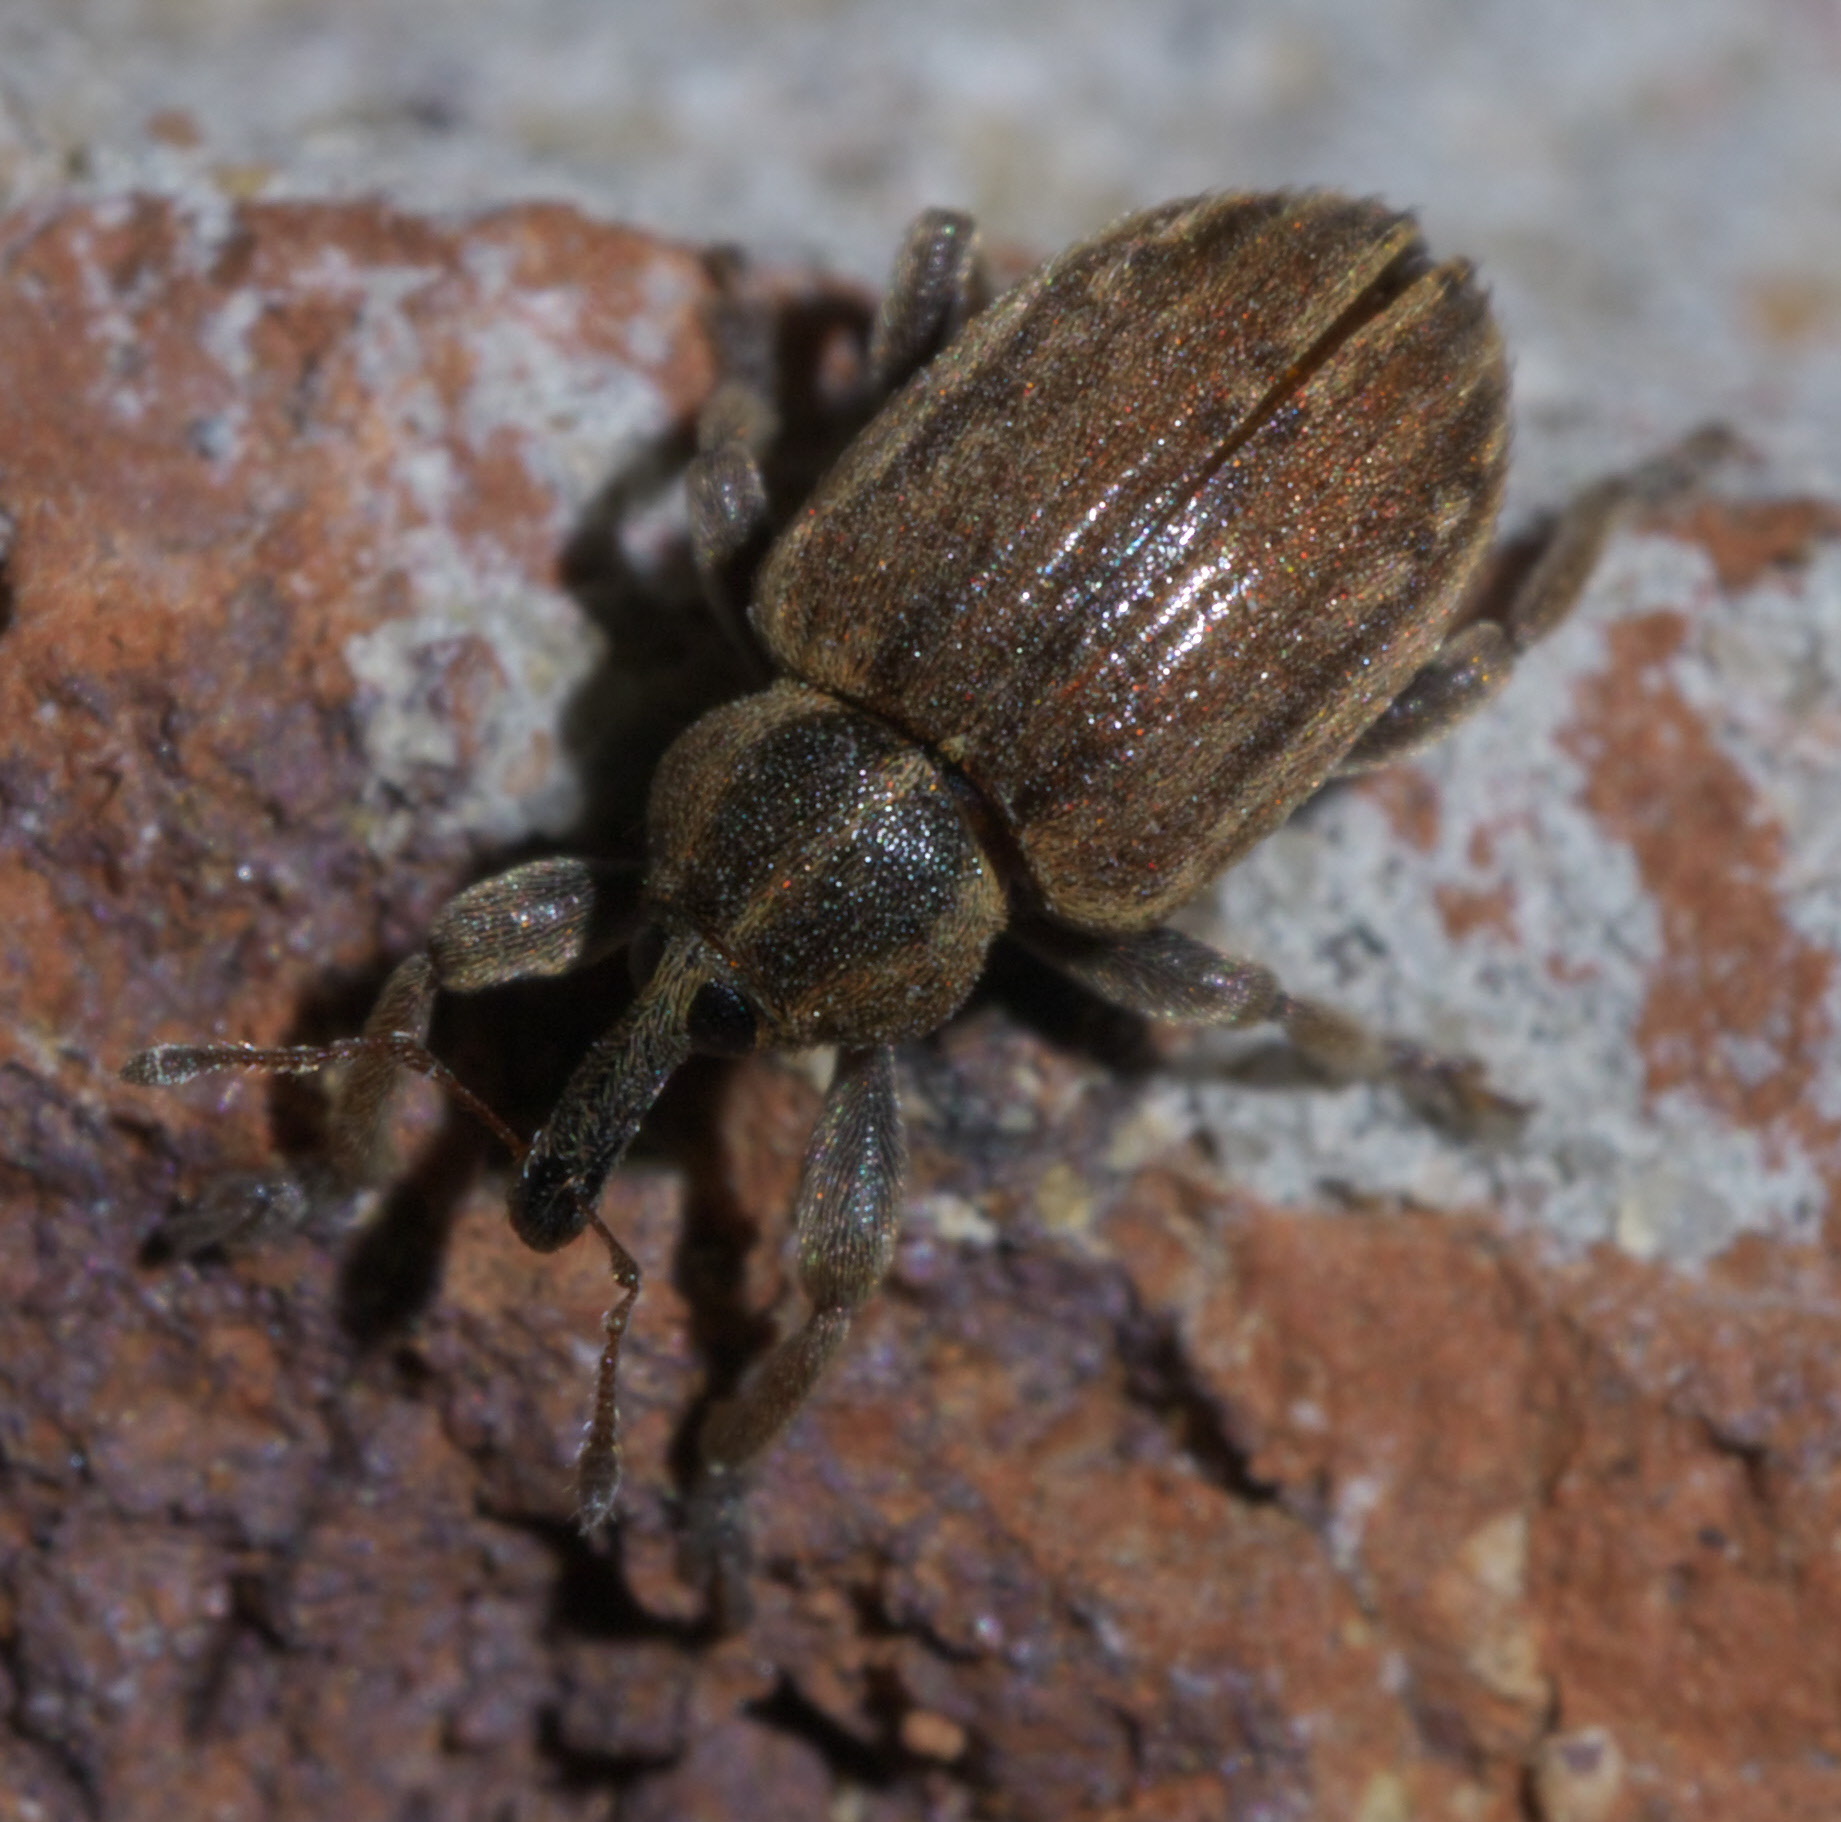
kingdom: Animalia
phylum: Arthropoda
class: Insecta
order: Coleoptera
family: Curculionidae
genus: Hypera
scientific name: Hypera postica
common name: Weevil
